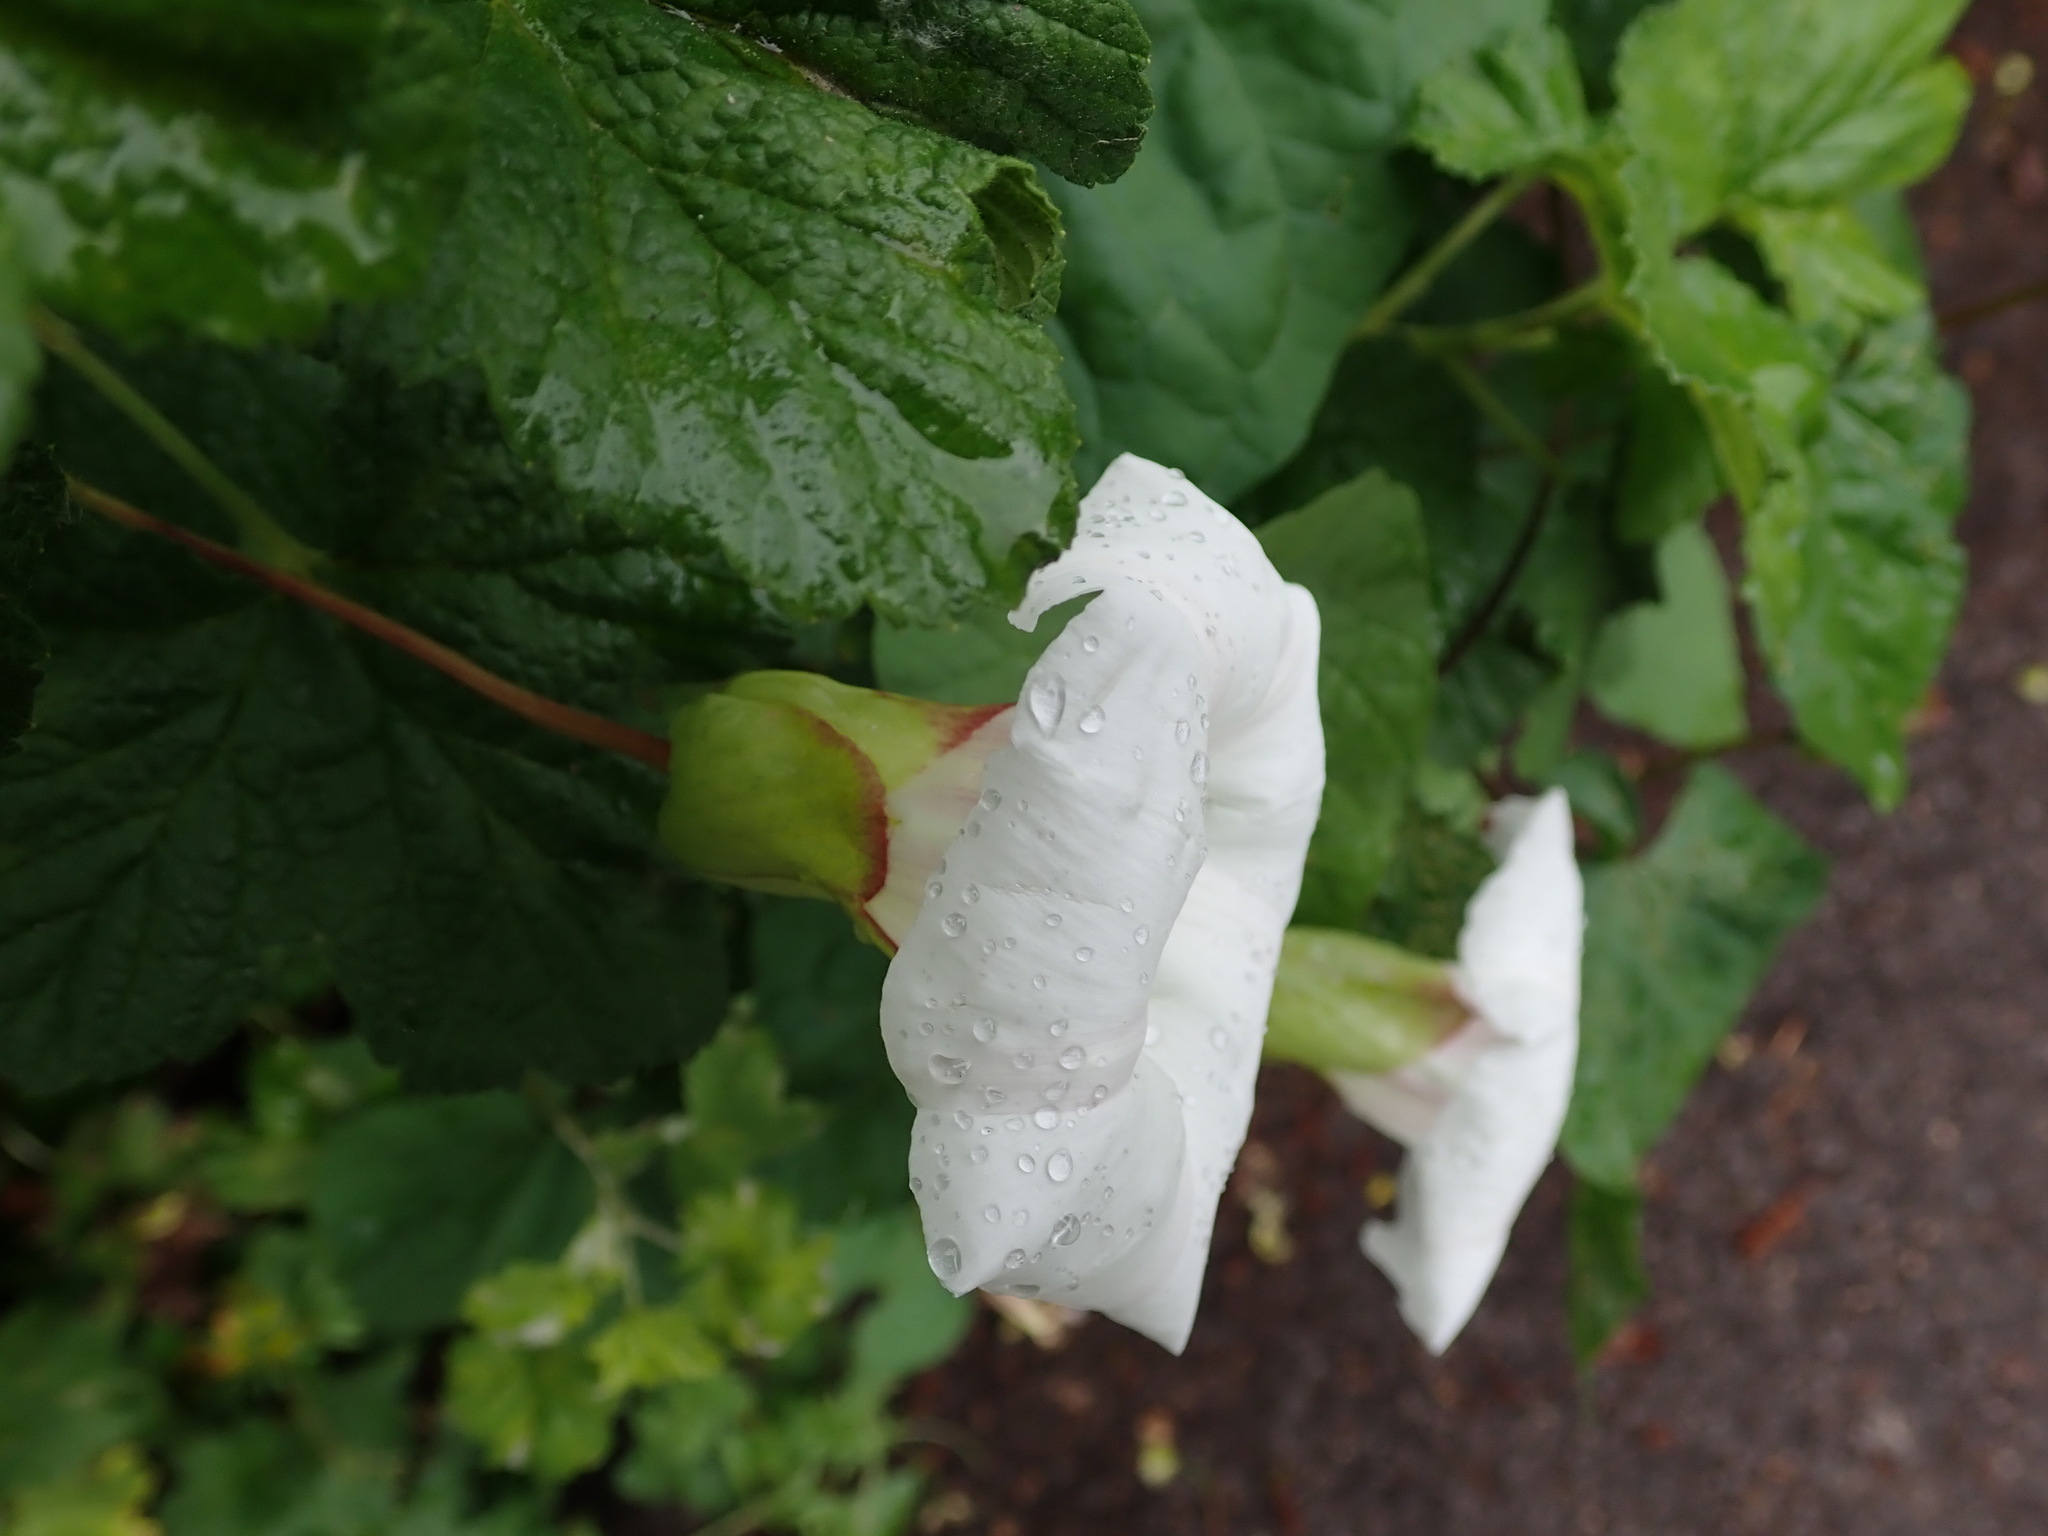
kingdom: Plantae
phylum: Tracheophyta
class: Magnoliopsida
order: Solanales
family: Convolvulaceae
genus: Calystegia
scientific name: Calystegia silvatica
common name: Large bindweed
